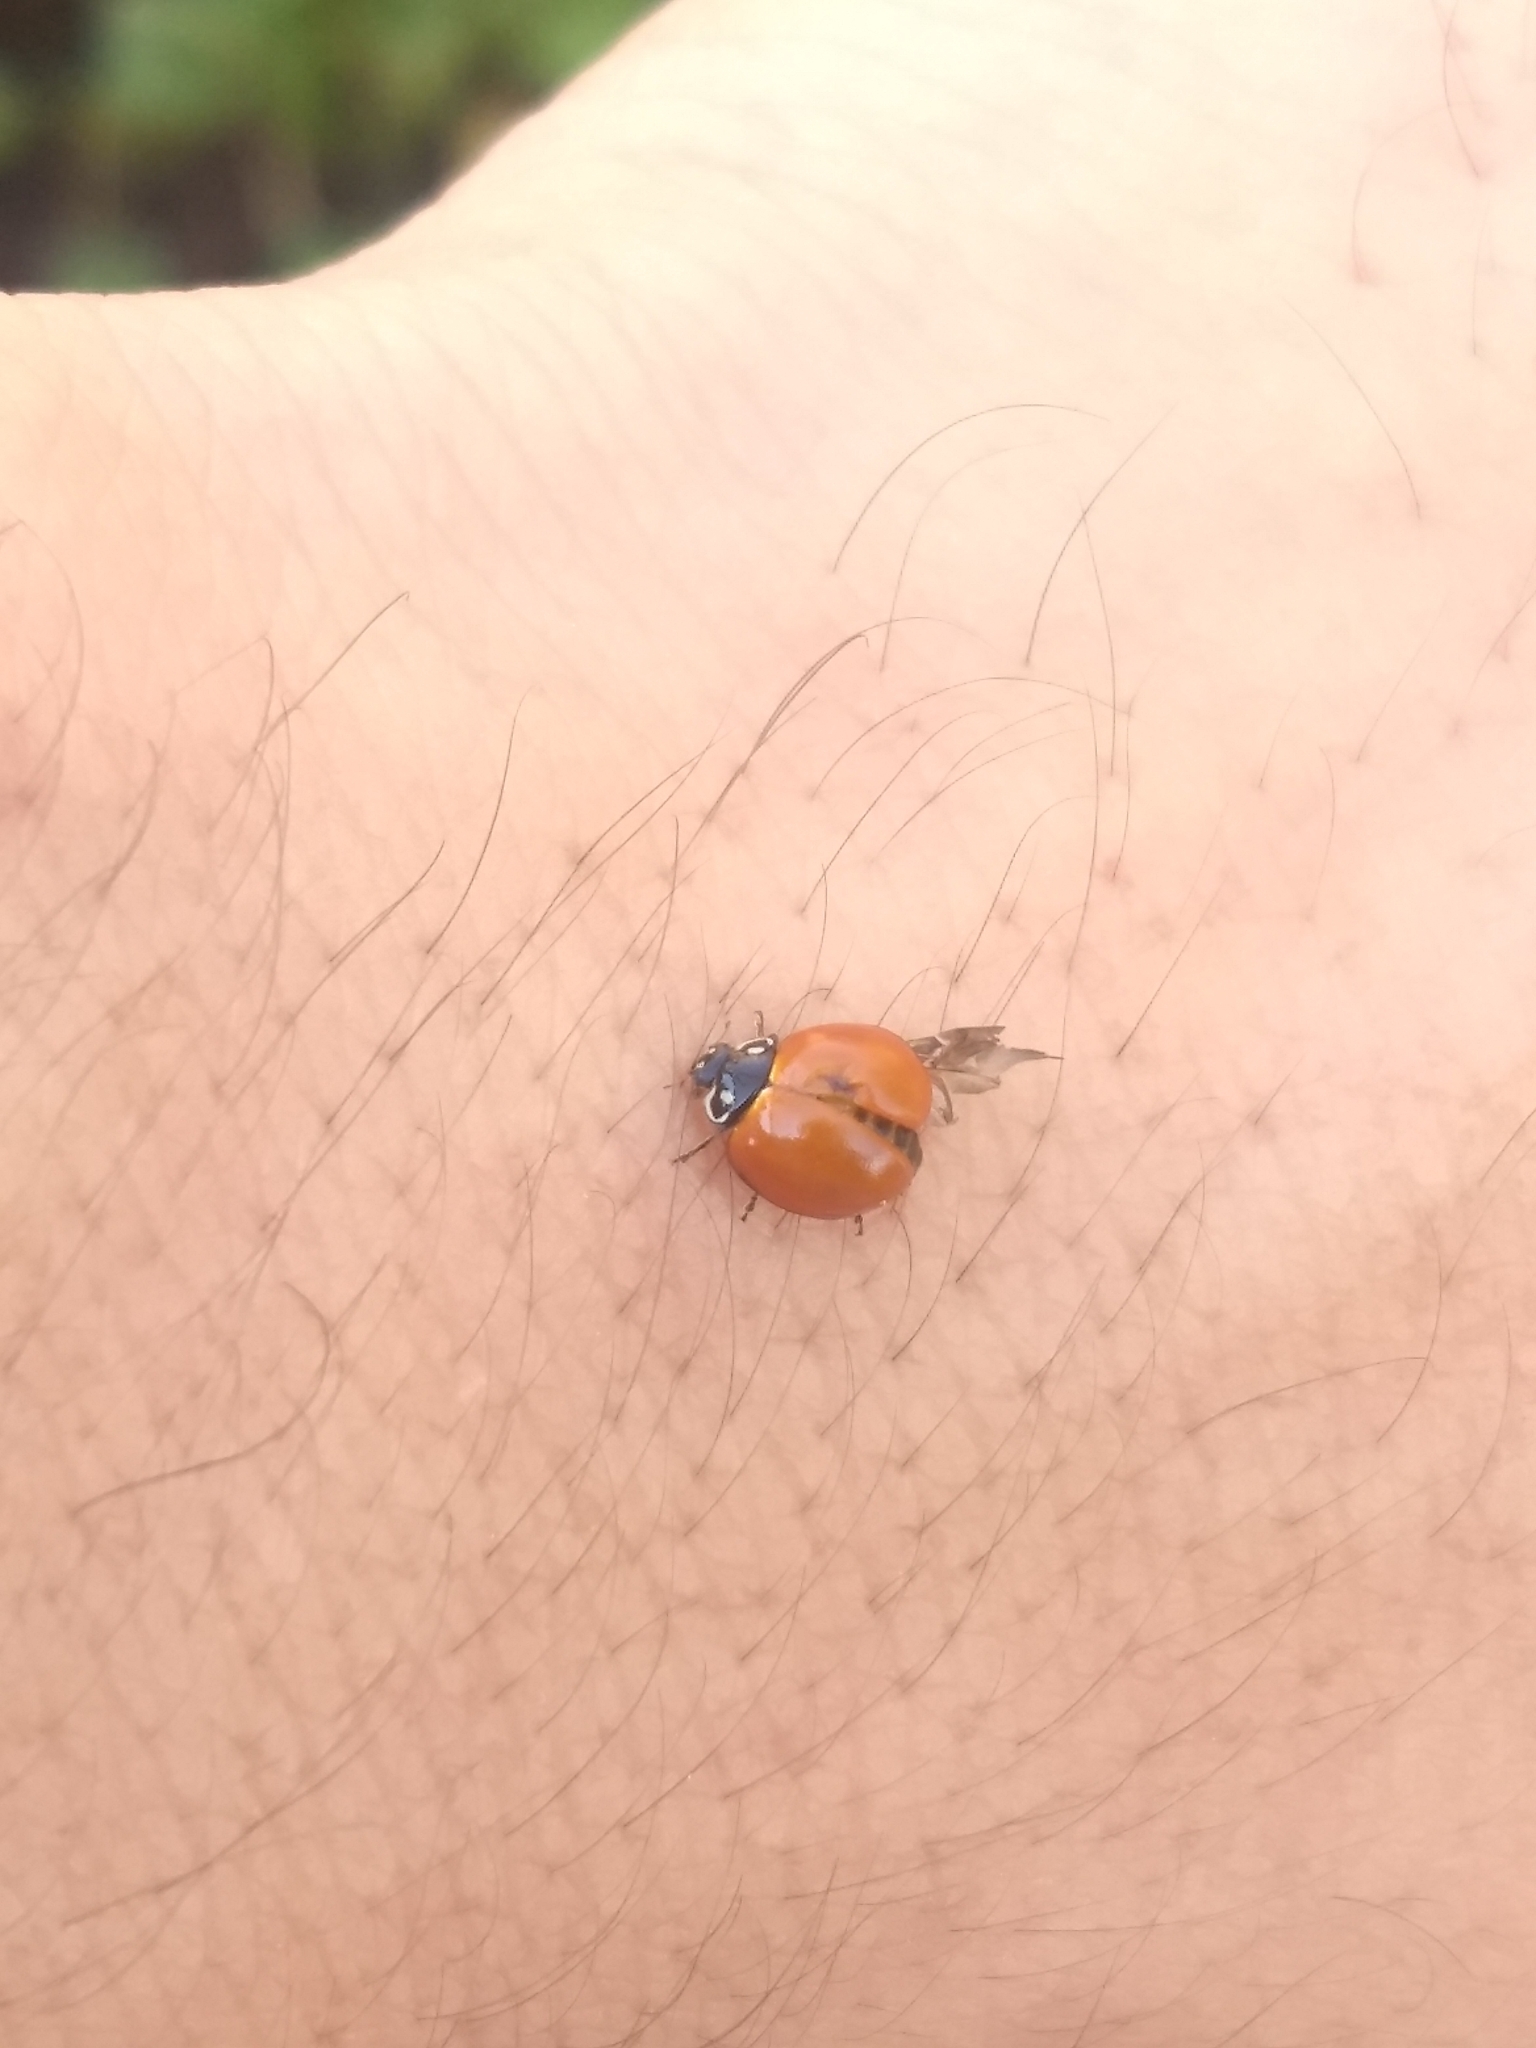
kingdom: Animalia
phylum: Arthropoda
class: Insecta
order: Coleoptera
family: Coccinellidae
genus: Cycloneda
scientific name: Cycloneda sanguinea
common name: Ladybird beetle
